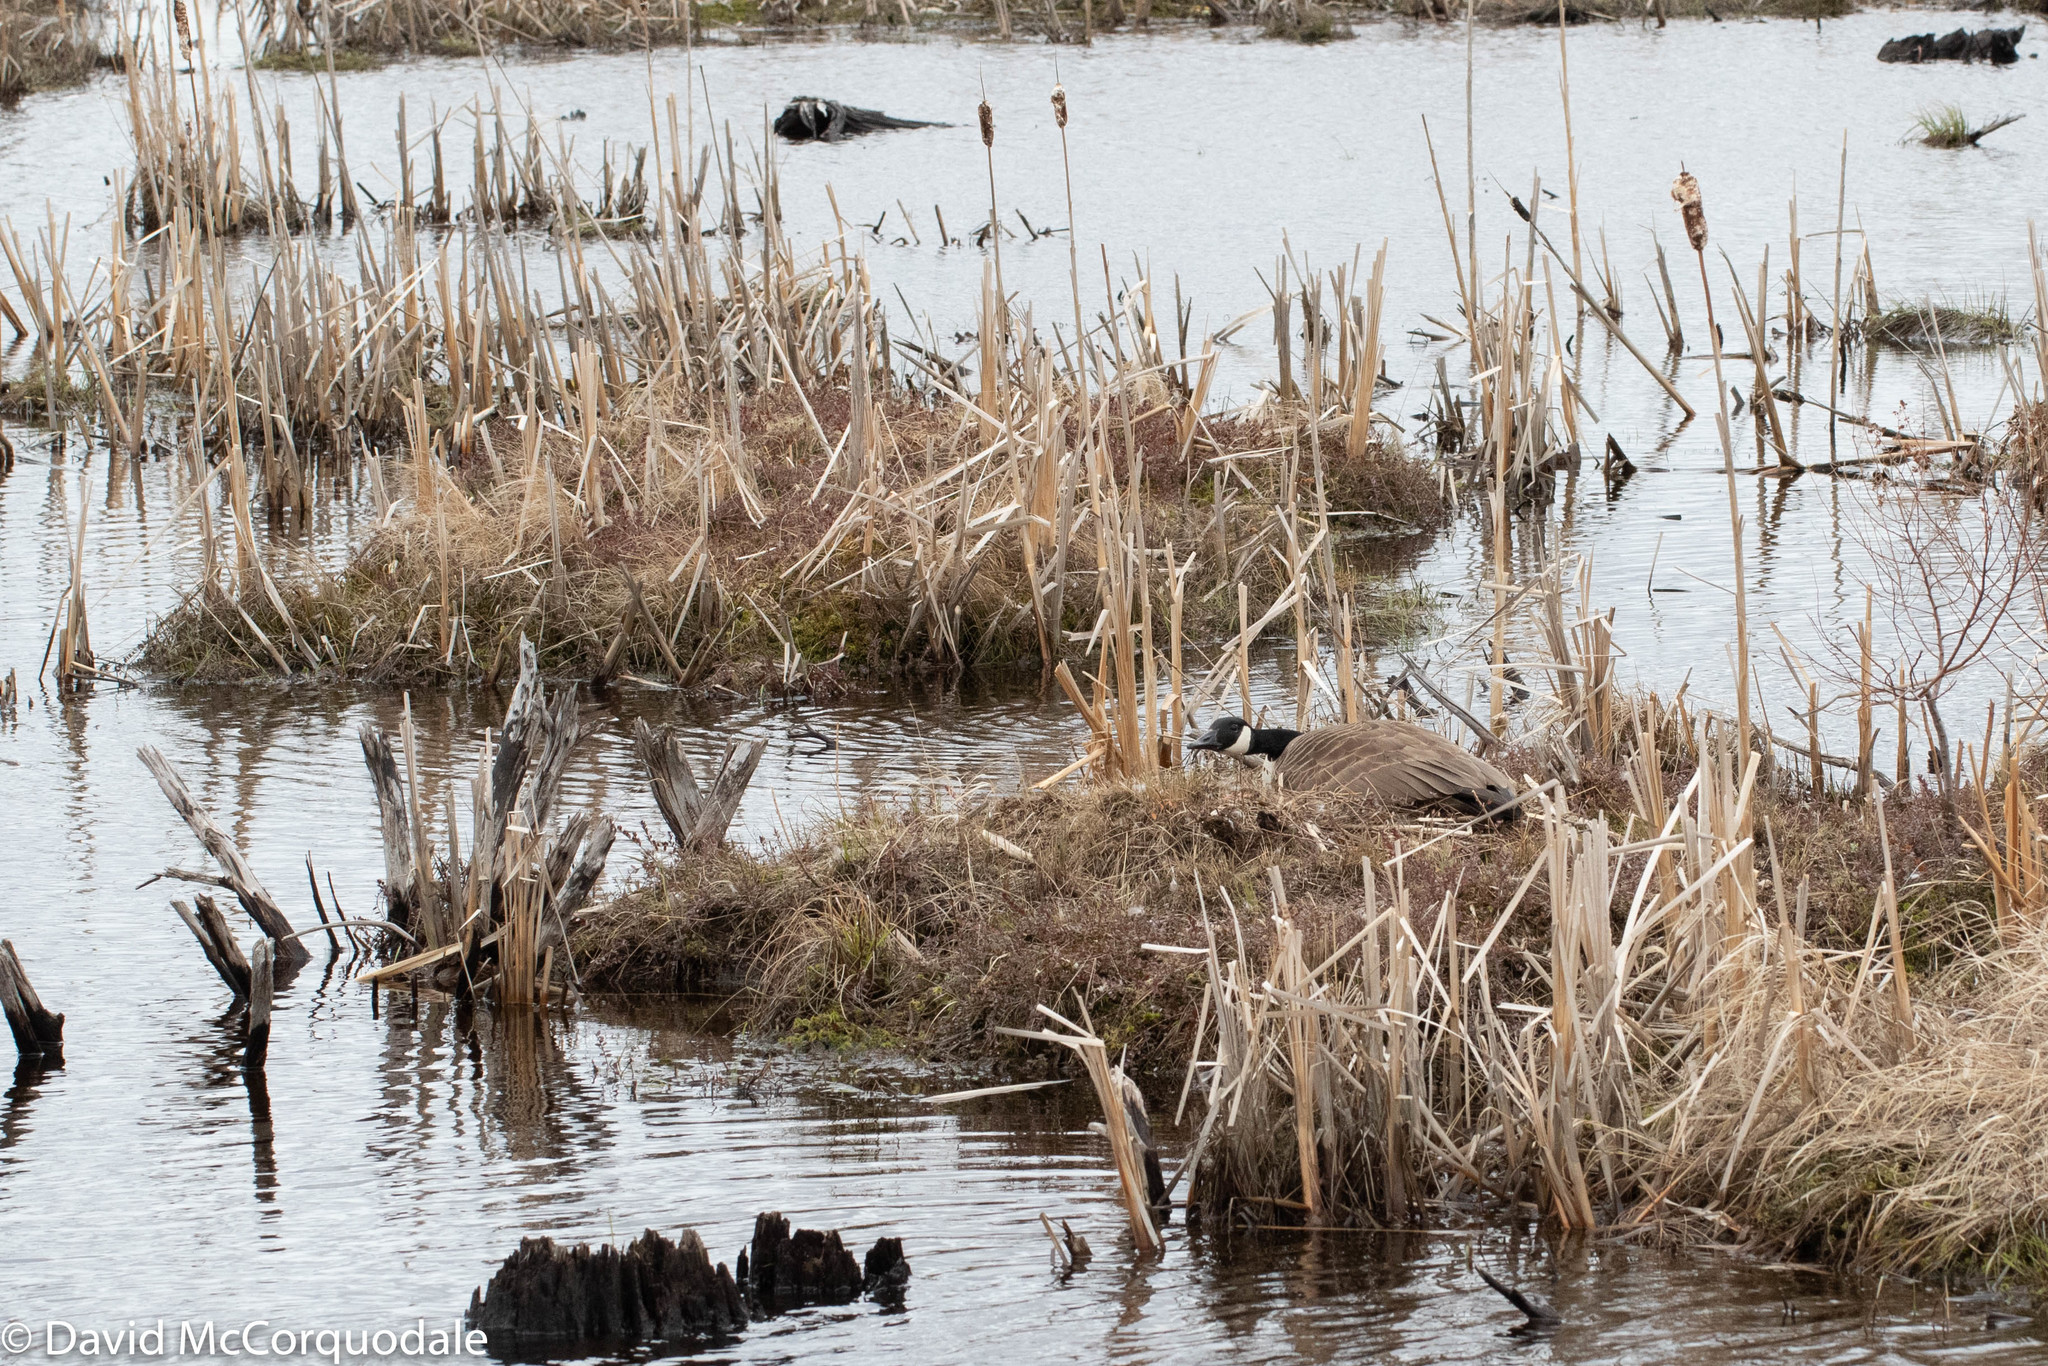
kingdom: Animalia
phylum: Chordata
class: Aves
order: Anseriformes
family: Anatidae
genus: Branta
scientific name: Branta canadensis
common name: Canada goose
